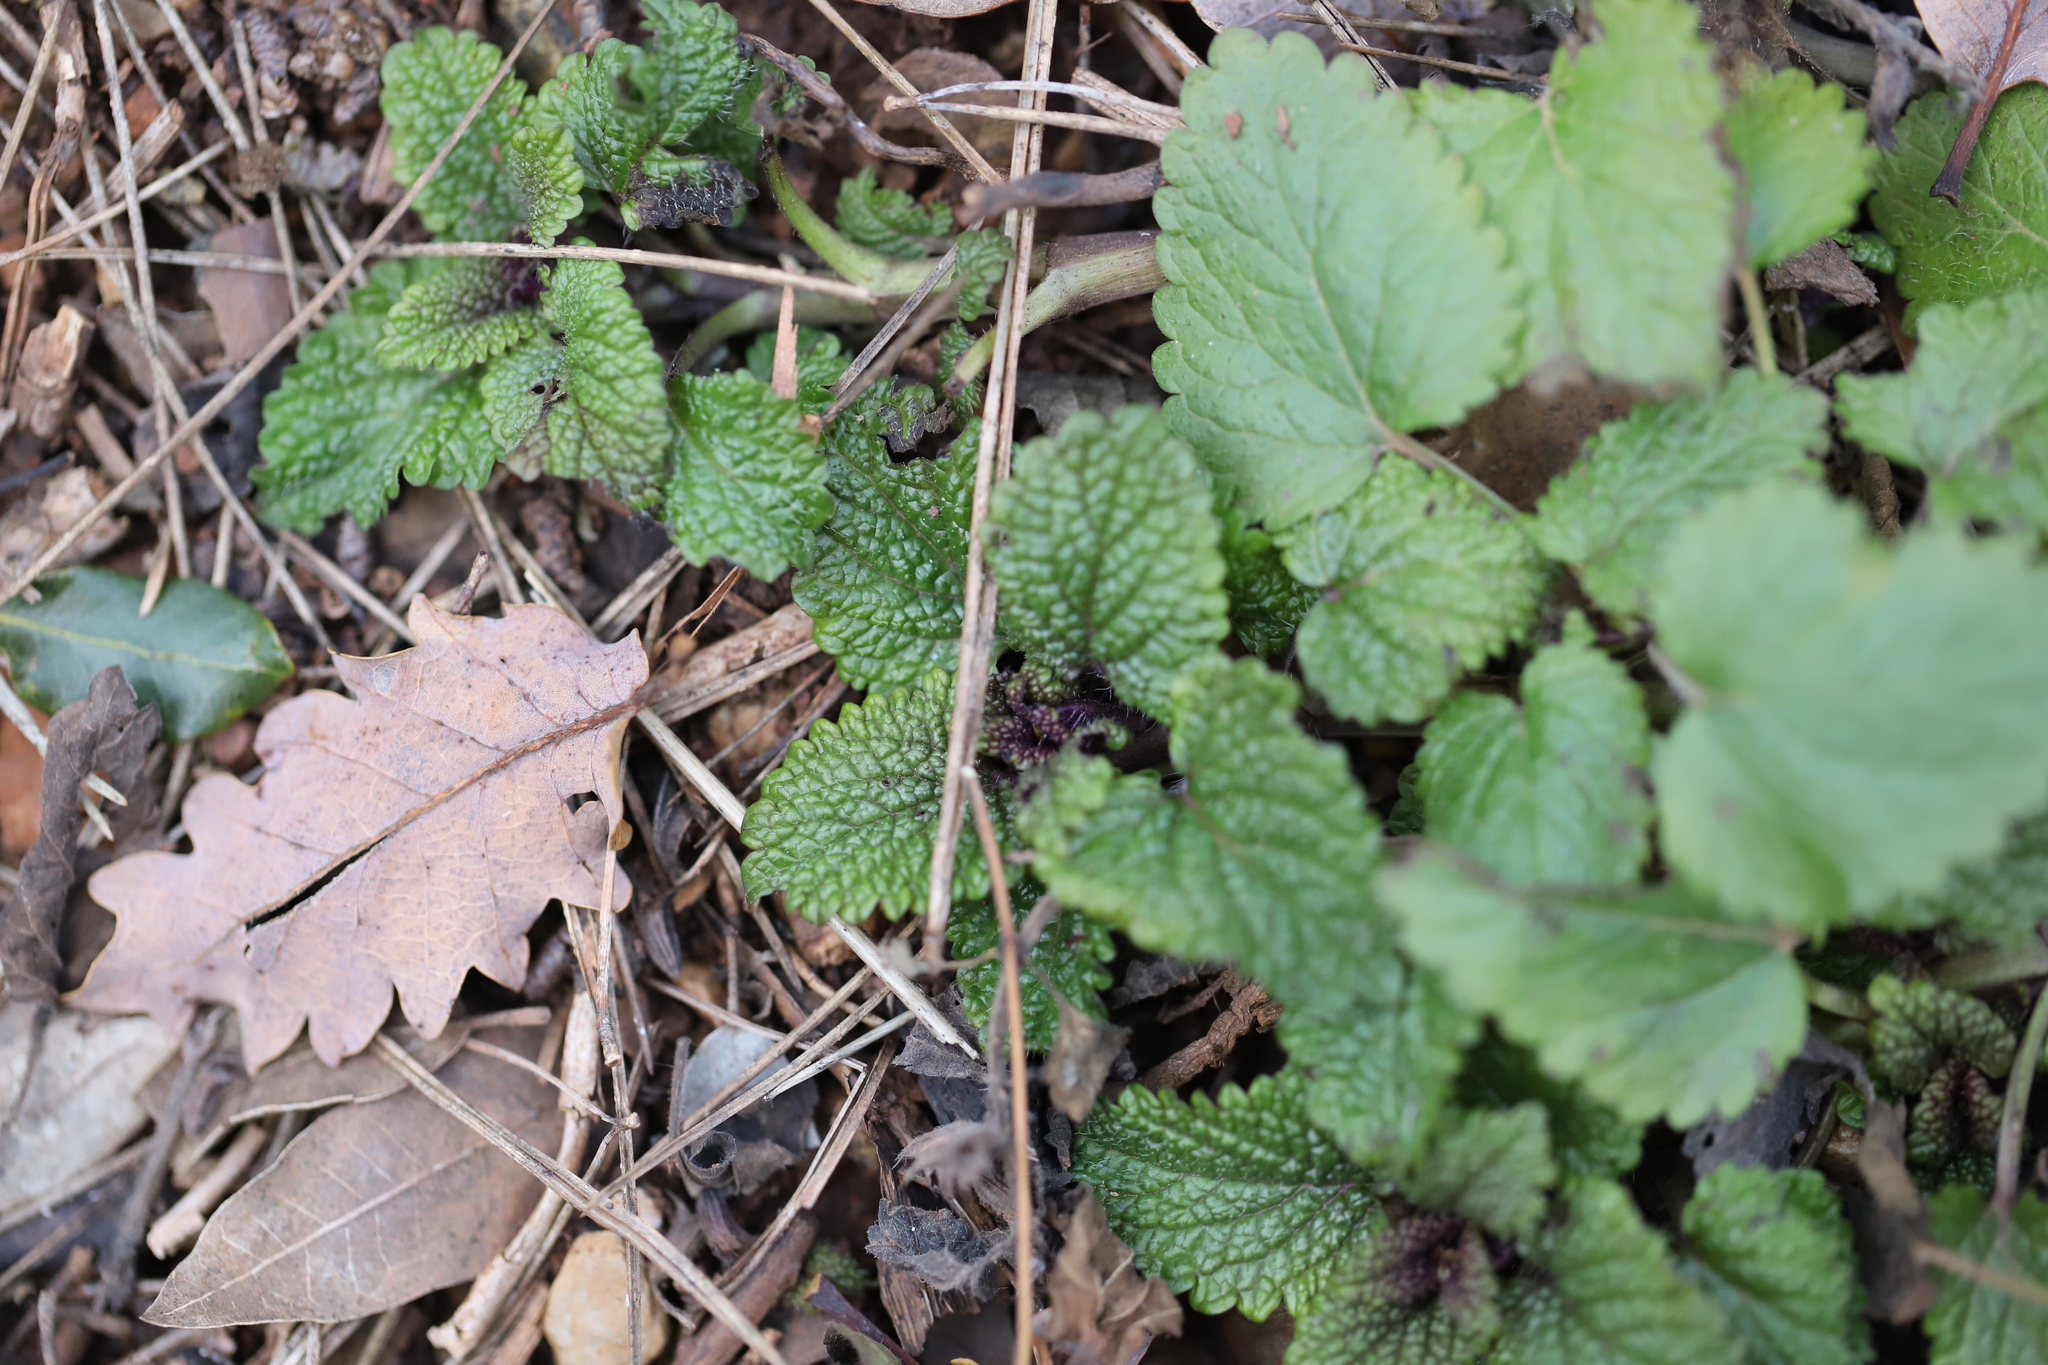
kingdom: Plantae
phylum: Tracheophyta
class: Magnoliopsida
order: Lamiales
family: Lamiaceae
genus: Melissa
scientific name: Melissa officinalis
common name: Balm
